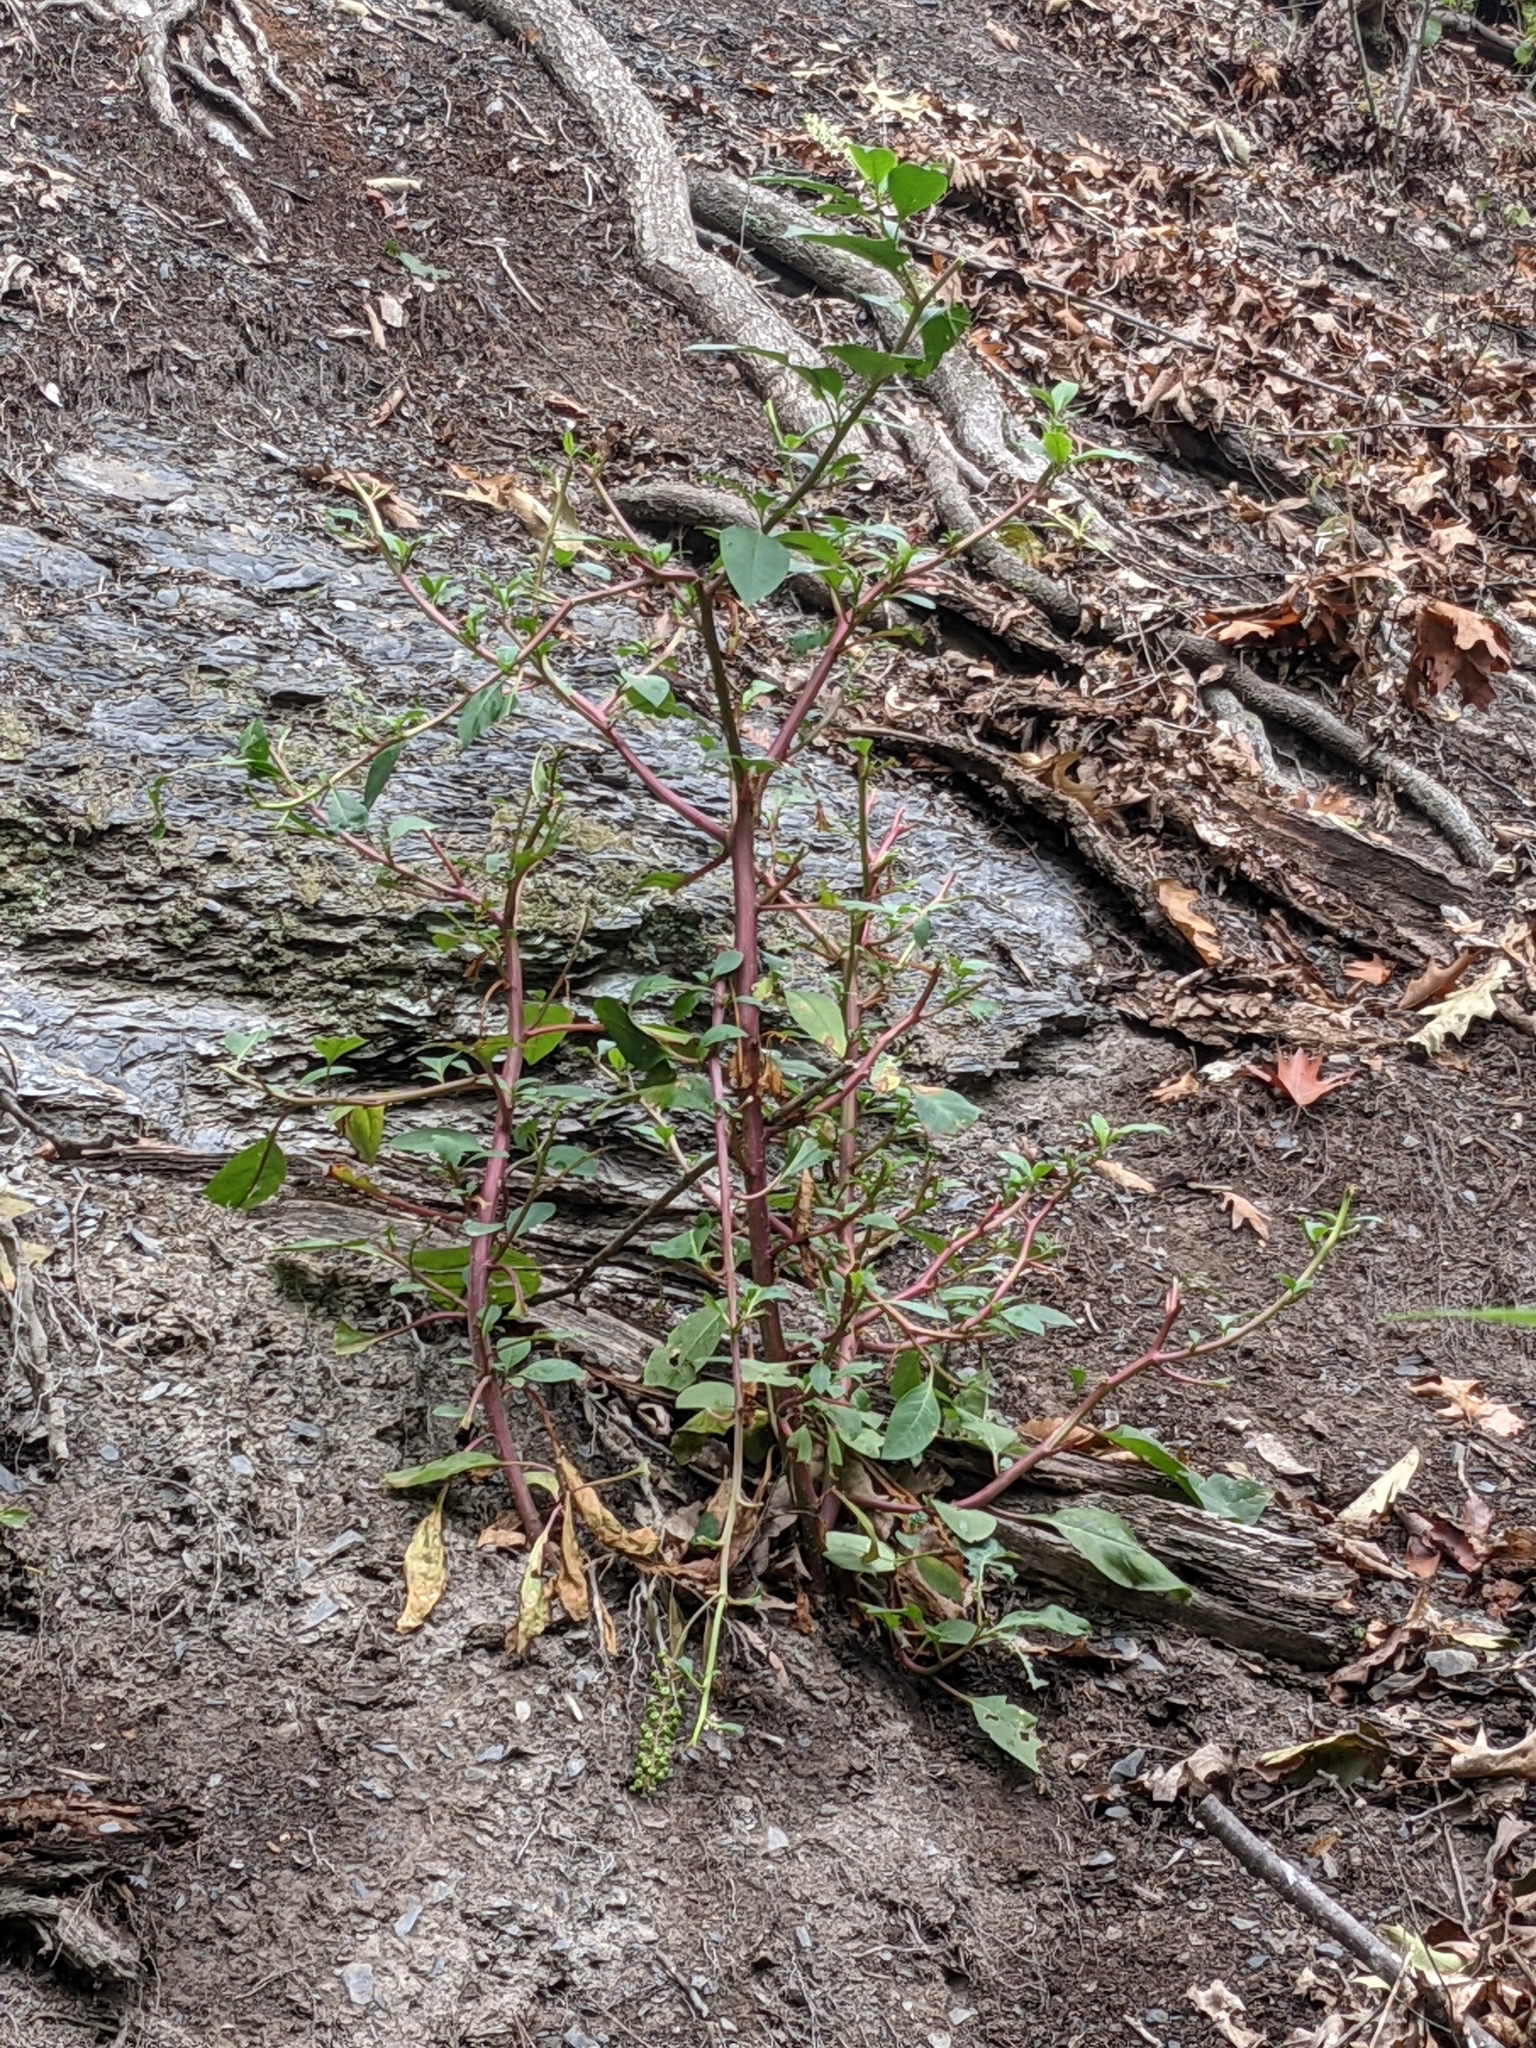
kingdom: Plantae
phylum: Tracheophyta
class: Magnoliopsida
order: Caryophyllales
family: Phytolaccaceae
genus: Phytolacca
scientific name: Phytolacca americana
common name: American pokeweed
